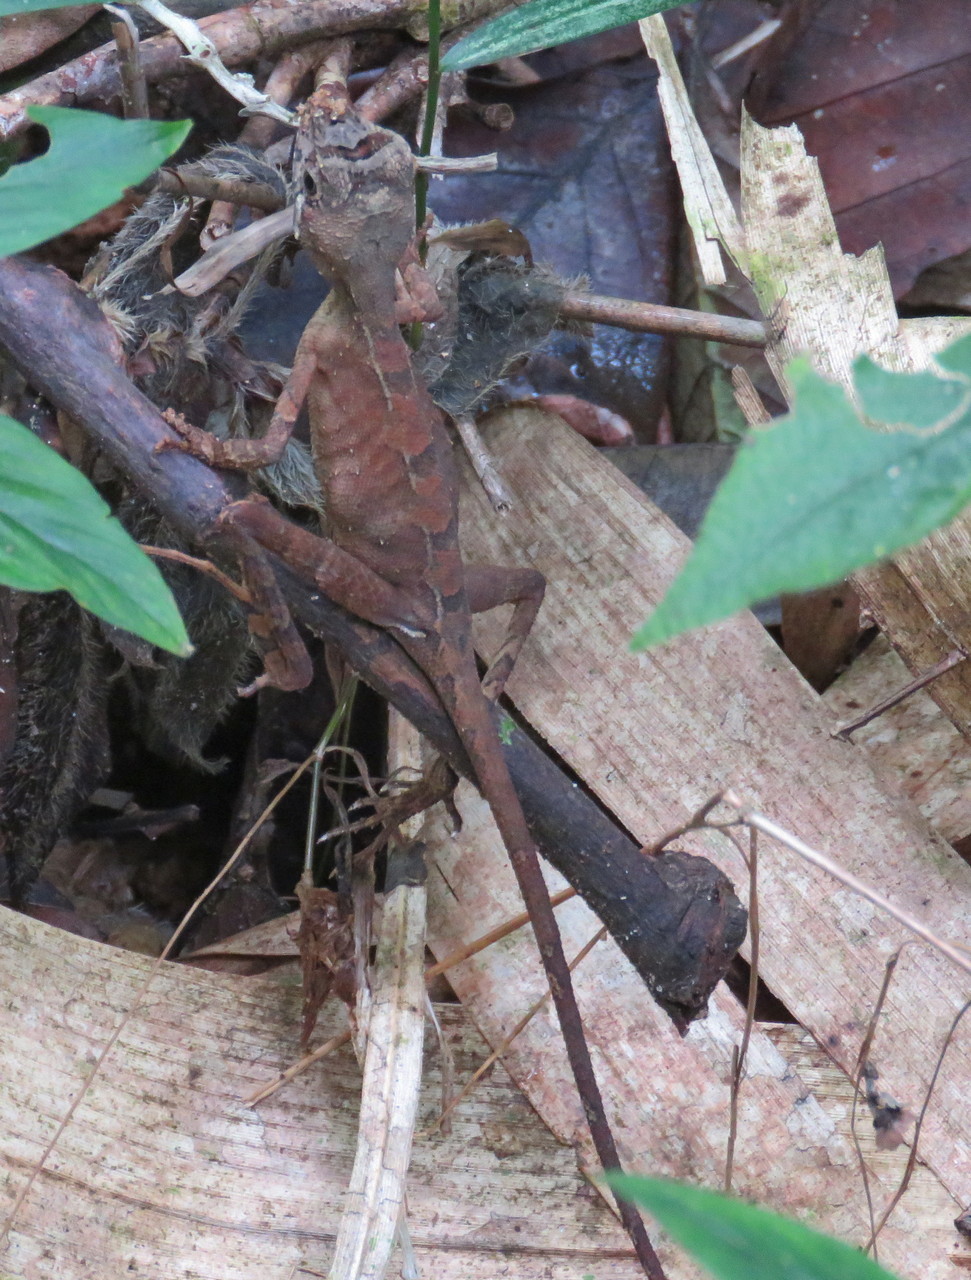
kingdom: Animalia
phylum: Chordata
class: Squamata
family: Agamidae
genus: Otocryptis
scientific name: Otocryptis wiegmanni
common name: Wiegmann's agama
